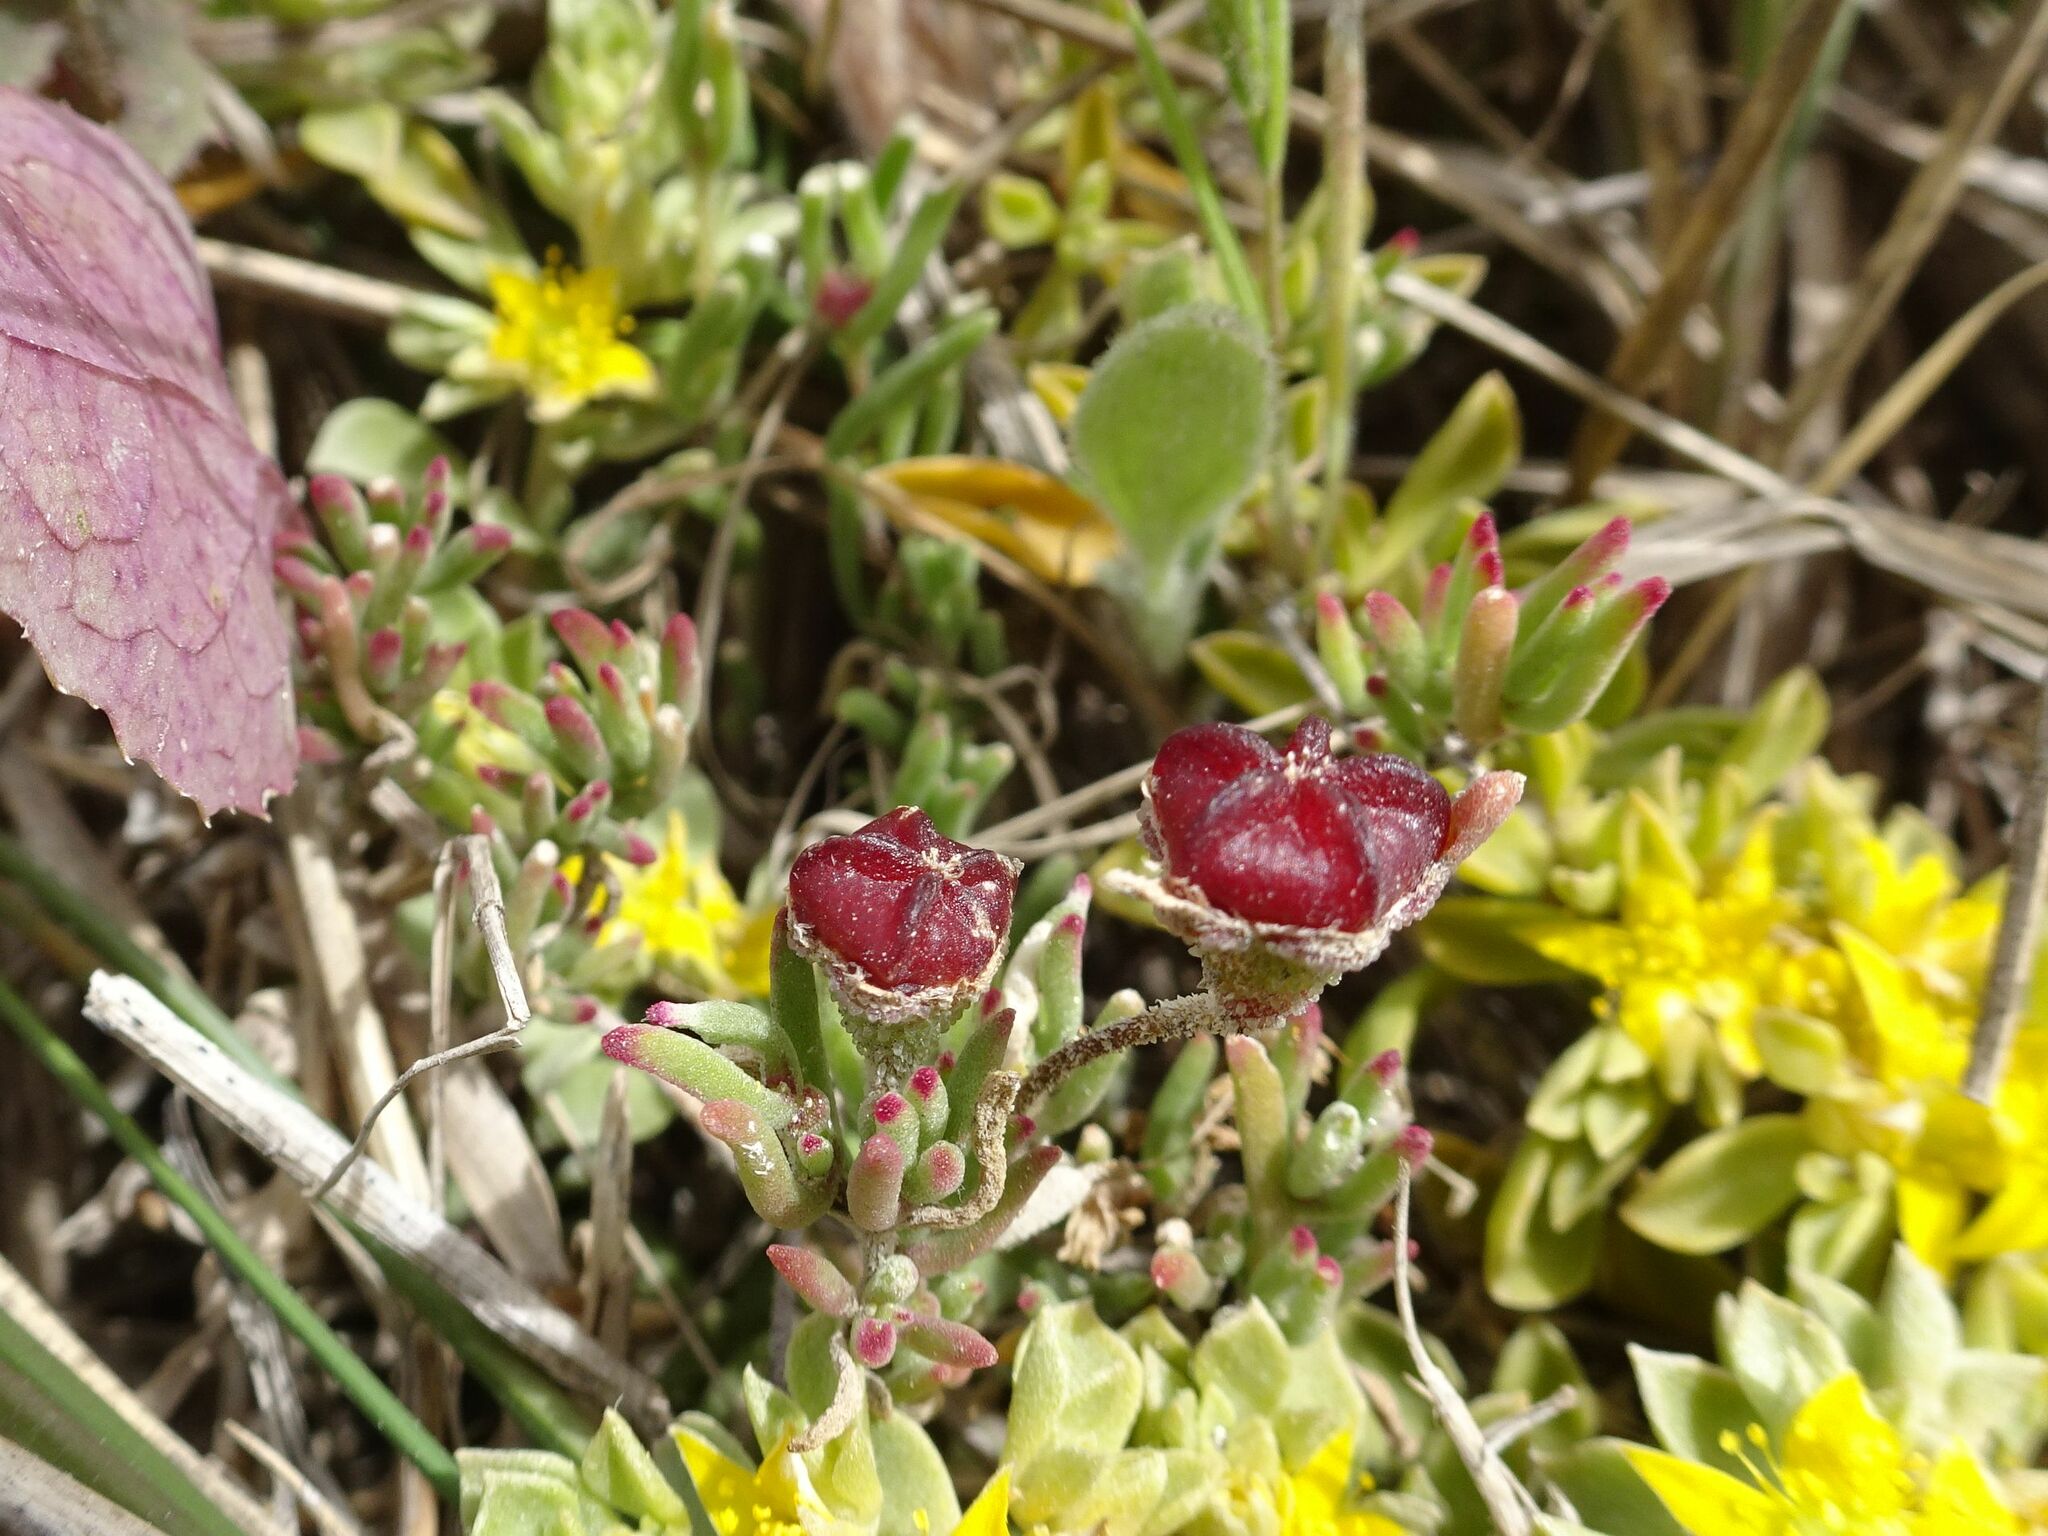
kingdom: Plantae
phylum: Tracheophyta
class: Magnoliopsida
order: Caryophyllales
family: Aizoaceae
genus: Drosanthemum
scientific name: Drosanthemum calcareum
